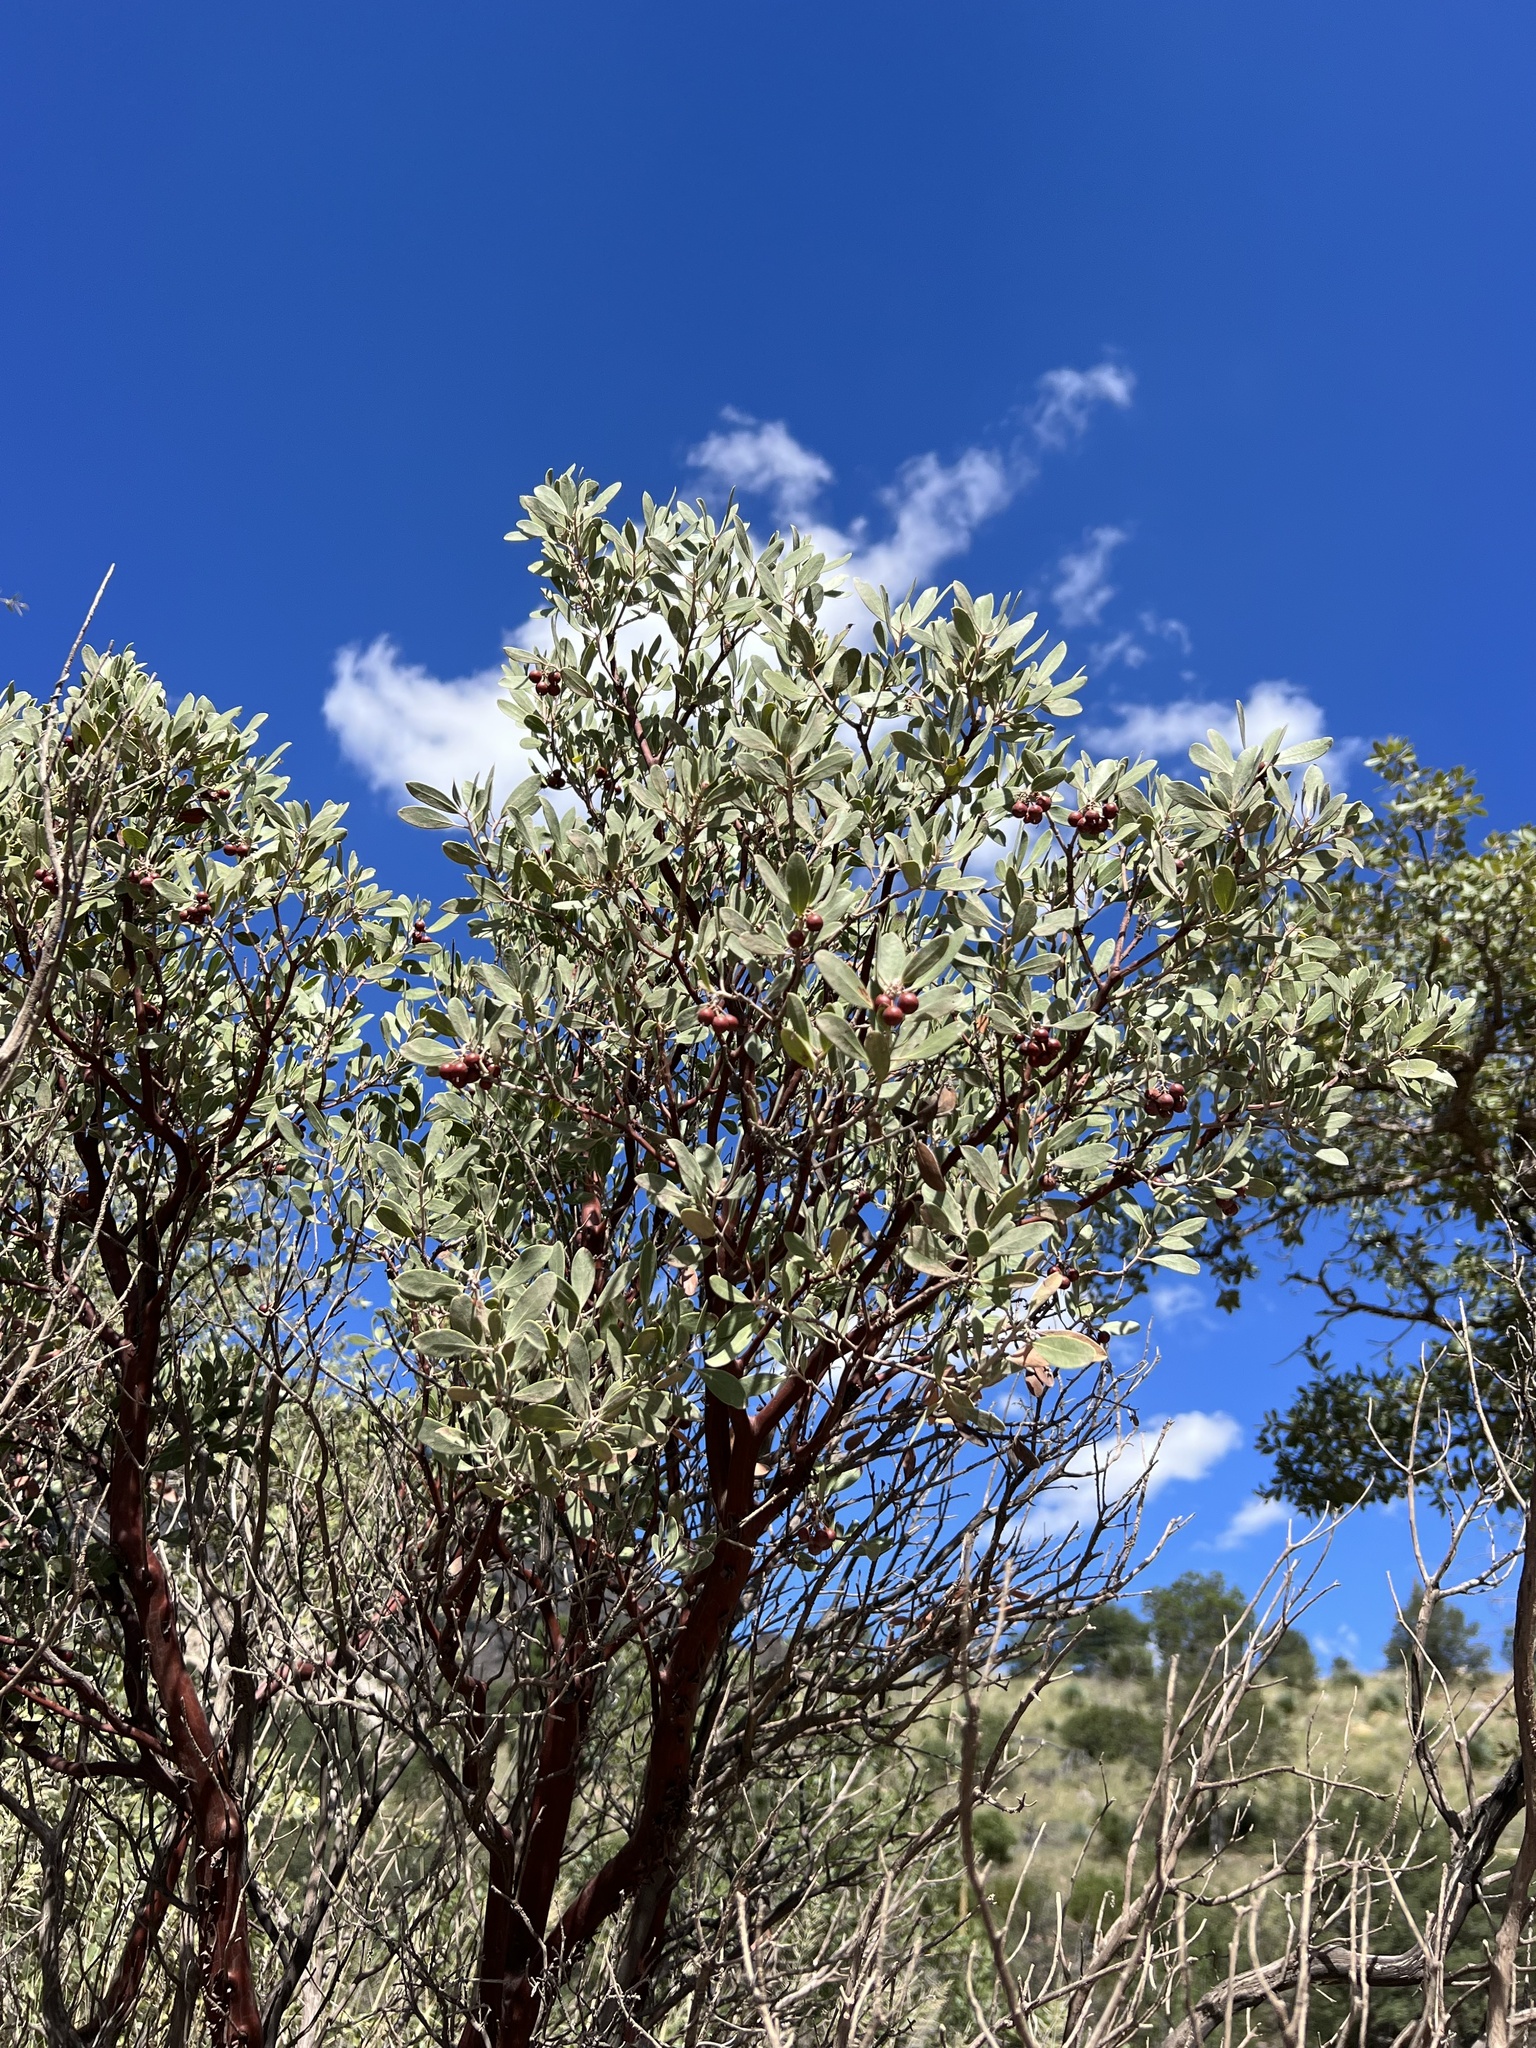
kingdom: Plantae
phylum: Tracheophyta
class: Magnoliopsida
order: Ericales
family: Ericaceae
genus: Arctostaphylos
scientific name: Arctostaphylos pungens
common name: Mexican manzanita
